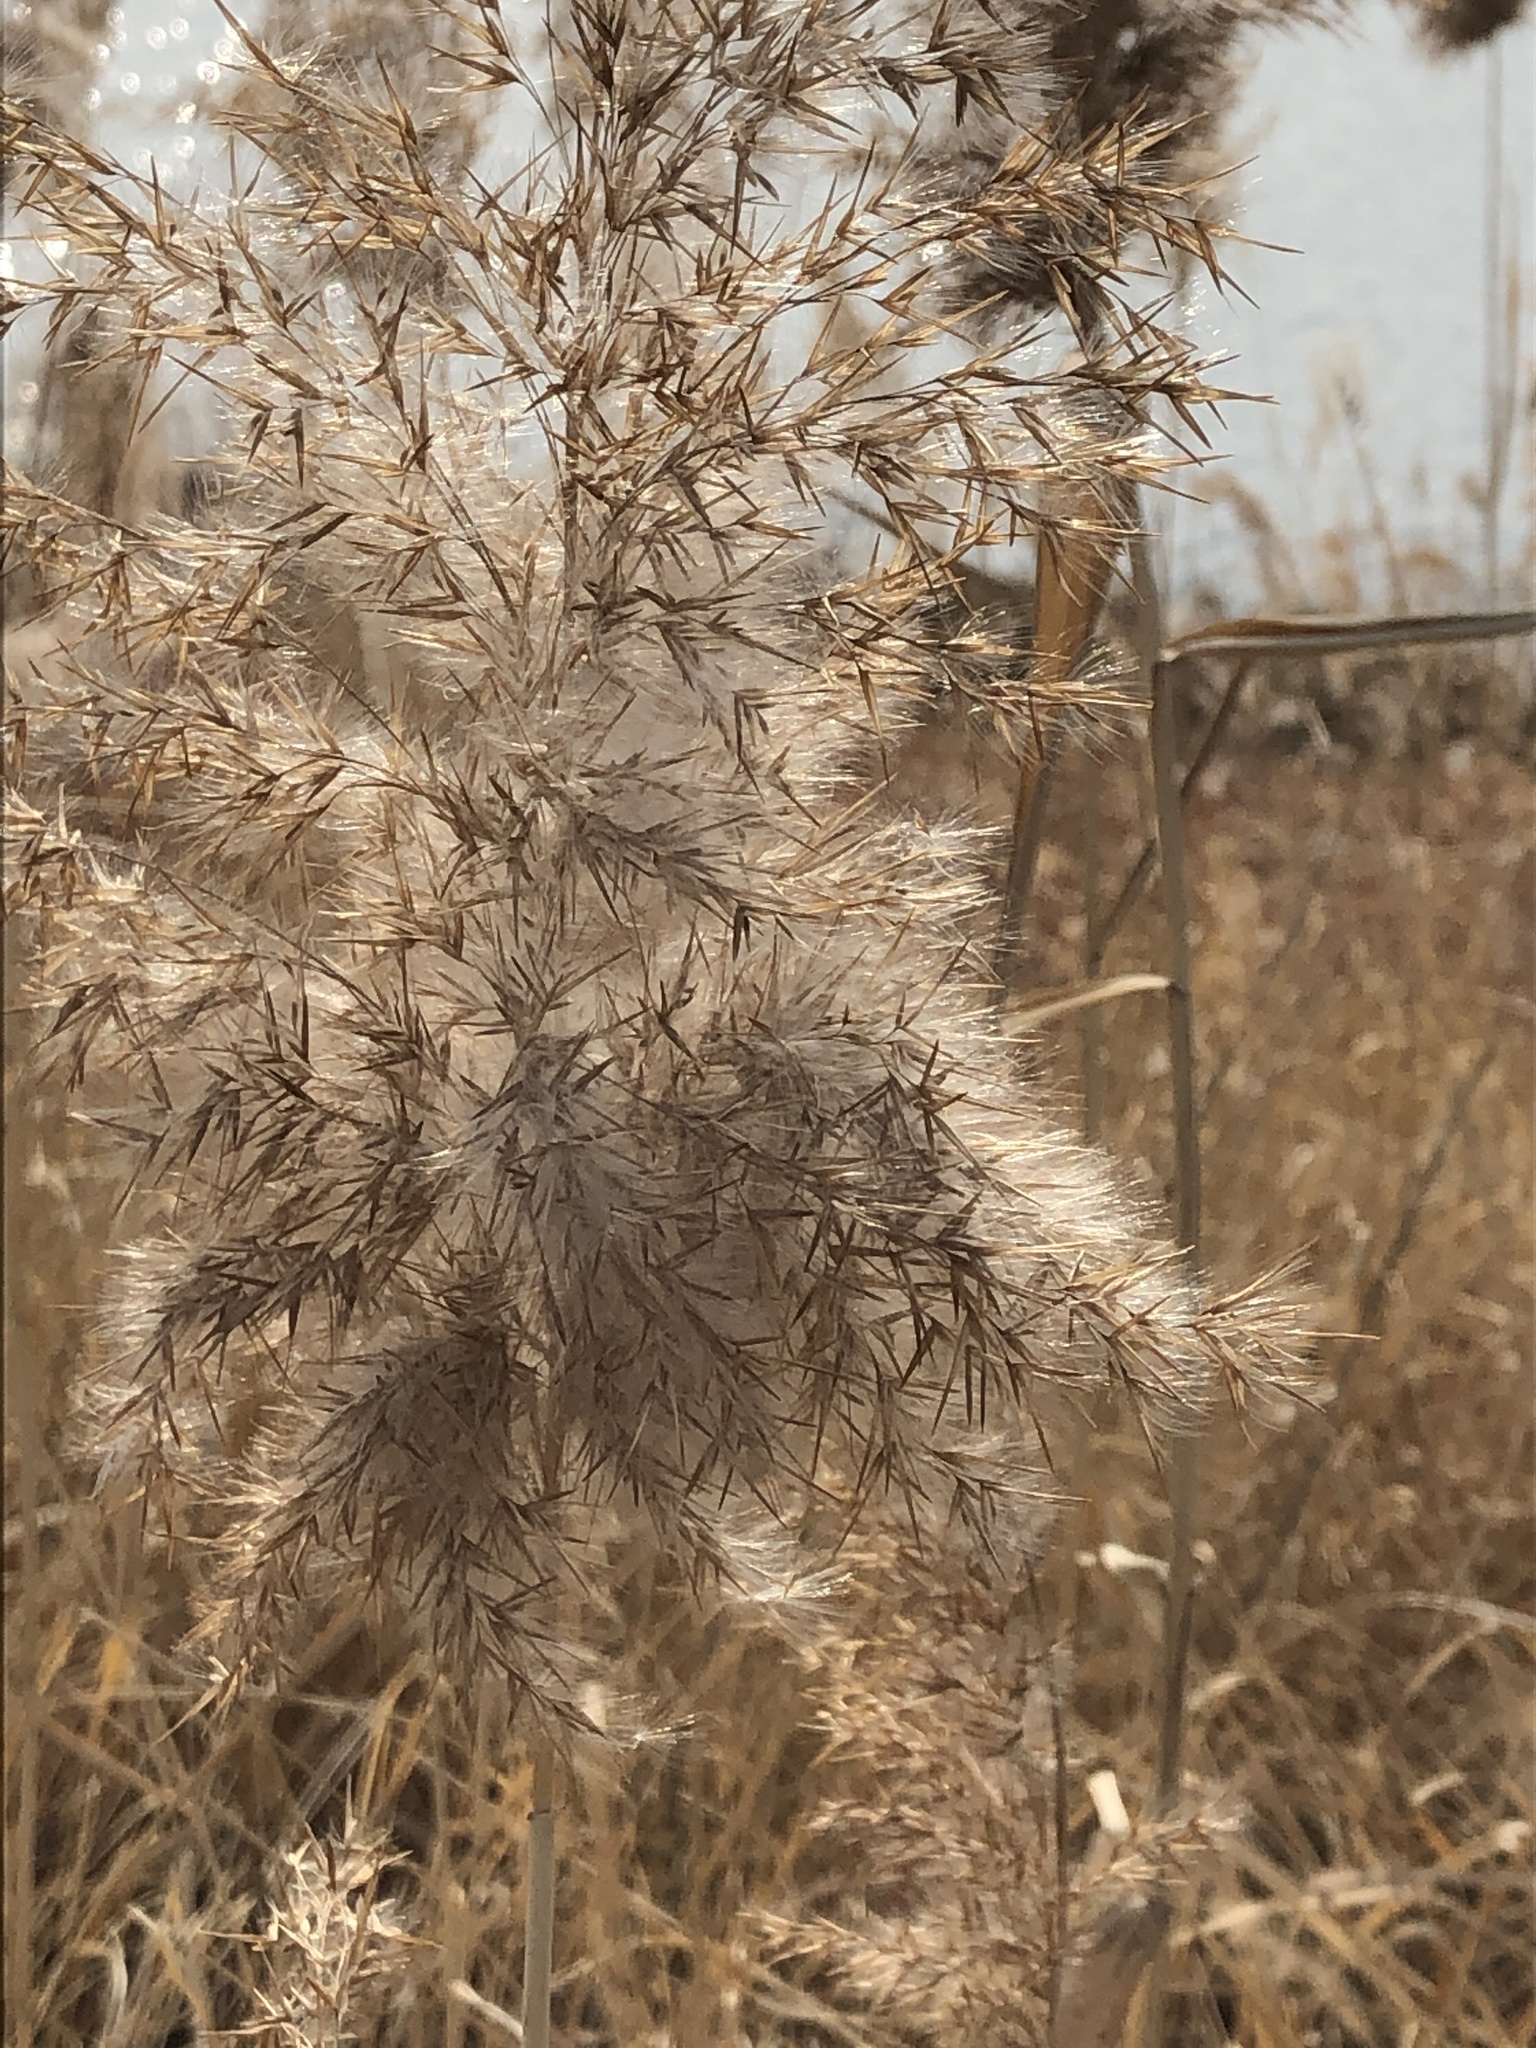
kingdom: Plantae
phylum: Tracheophyta
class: Liliopsida
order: Poales
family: Poaceae
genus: Phragmites
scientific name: Phragmites australis
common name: Common reed
